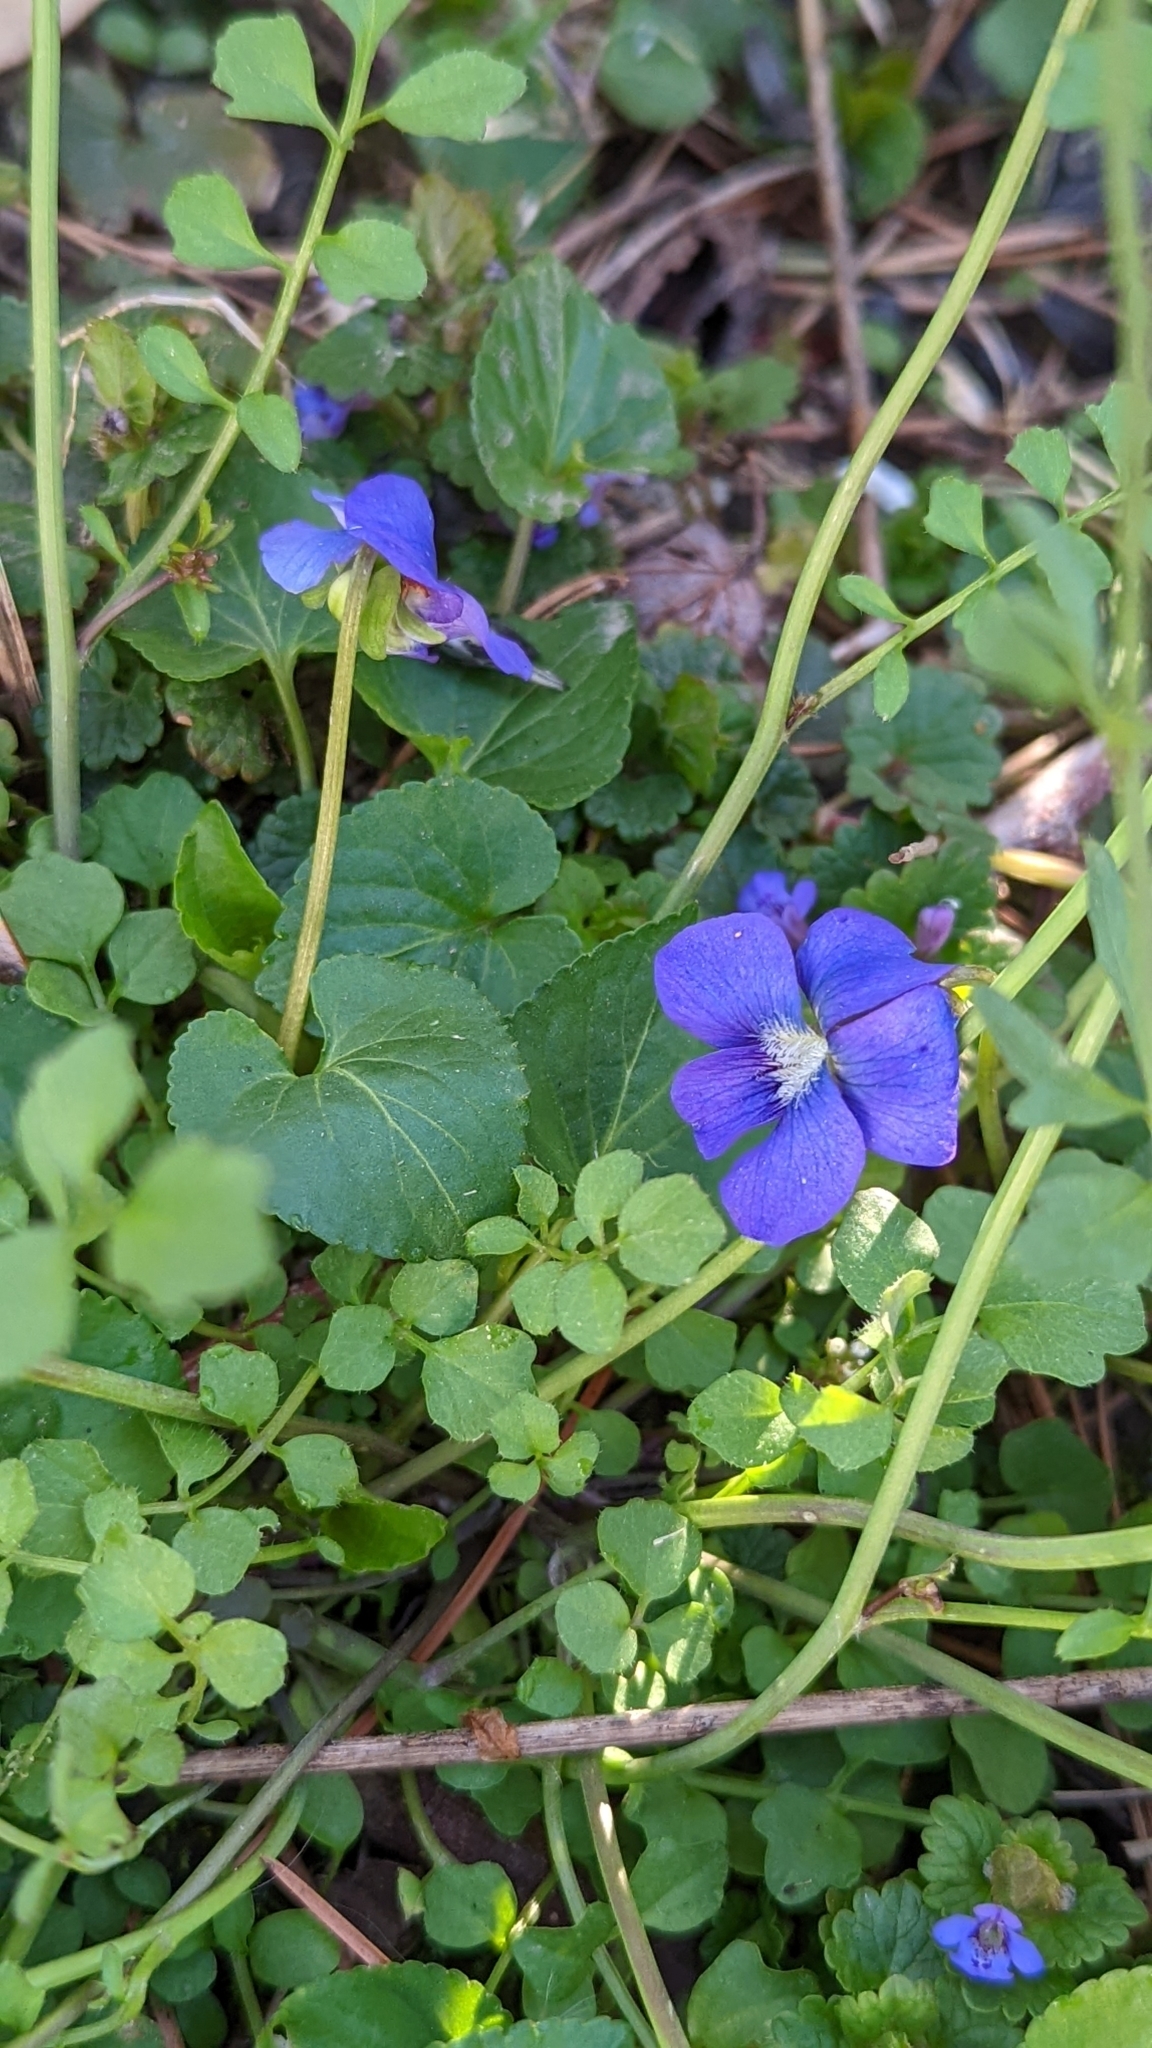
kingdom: Plantae
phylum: Tracheophyta
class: Magnoliopsida
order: Malpighiales
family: Violaceae
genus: Viola
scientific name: Viola sororia
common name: Dooryard violet
